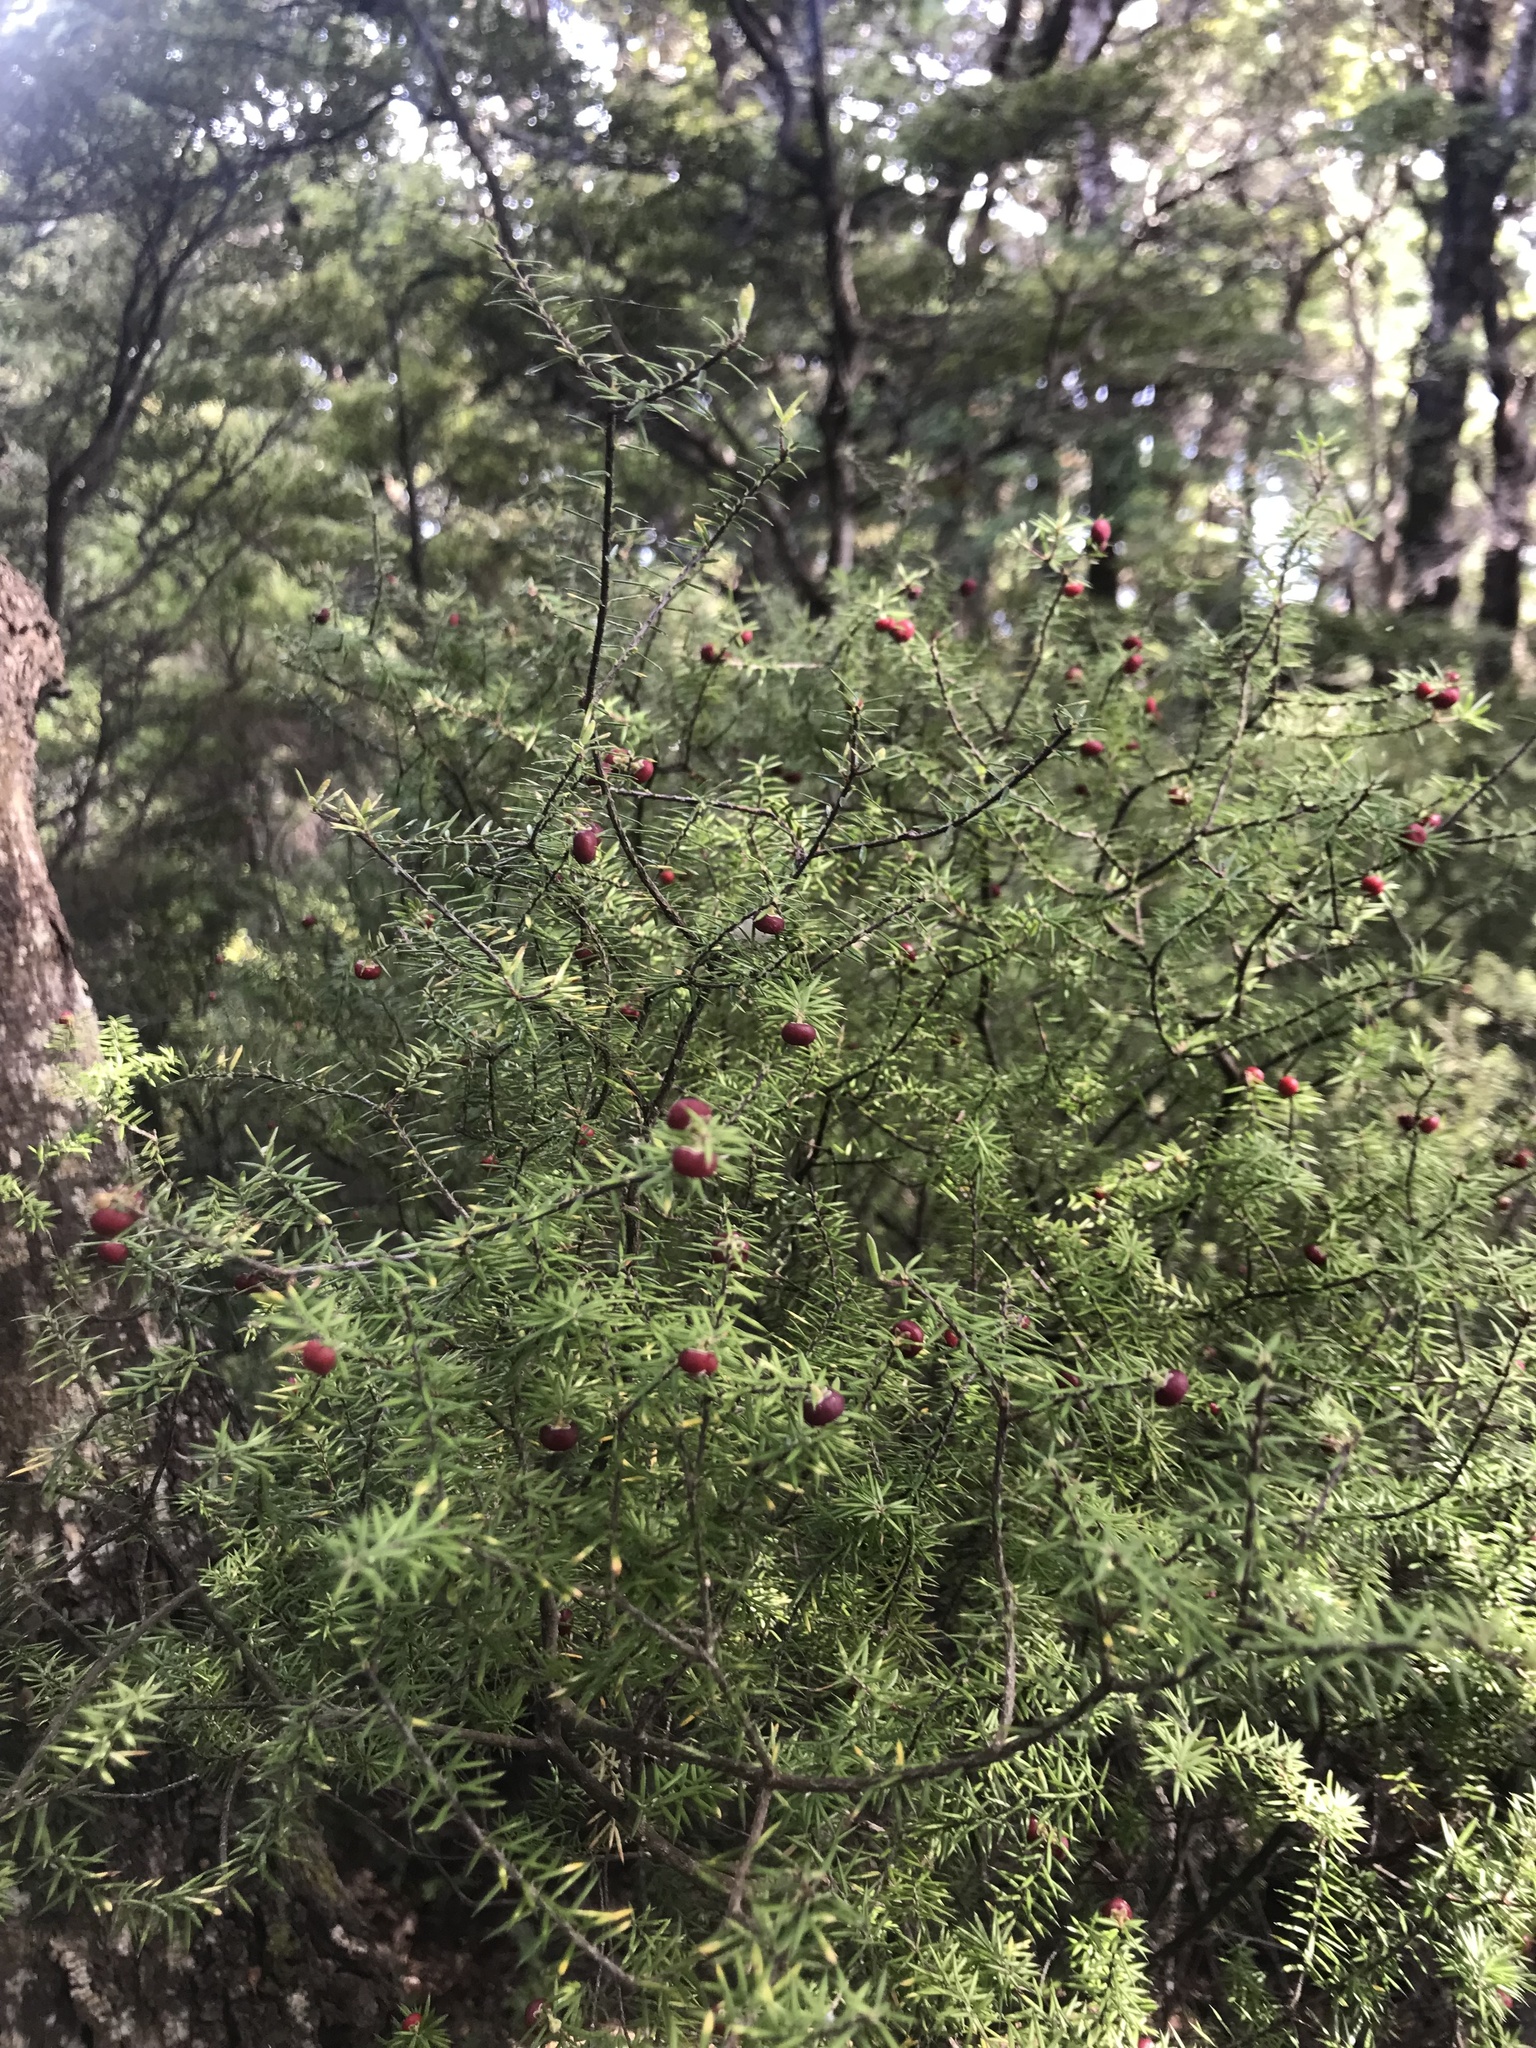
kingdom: Plantae
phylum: Tracheophyta
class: Magnoliopsida
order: Ericales
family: Ericaceae
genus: Leptecophylla
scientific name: Leptecophylla juniperina
